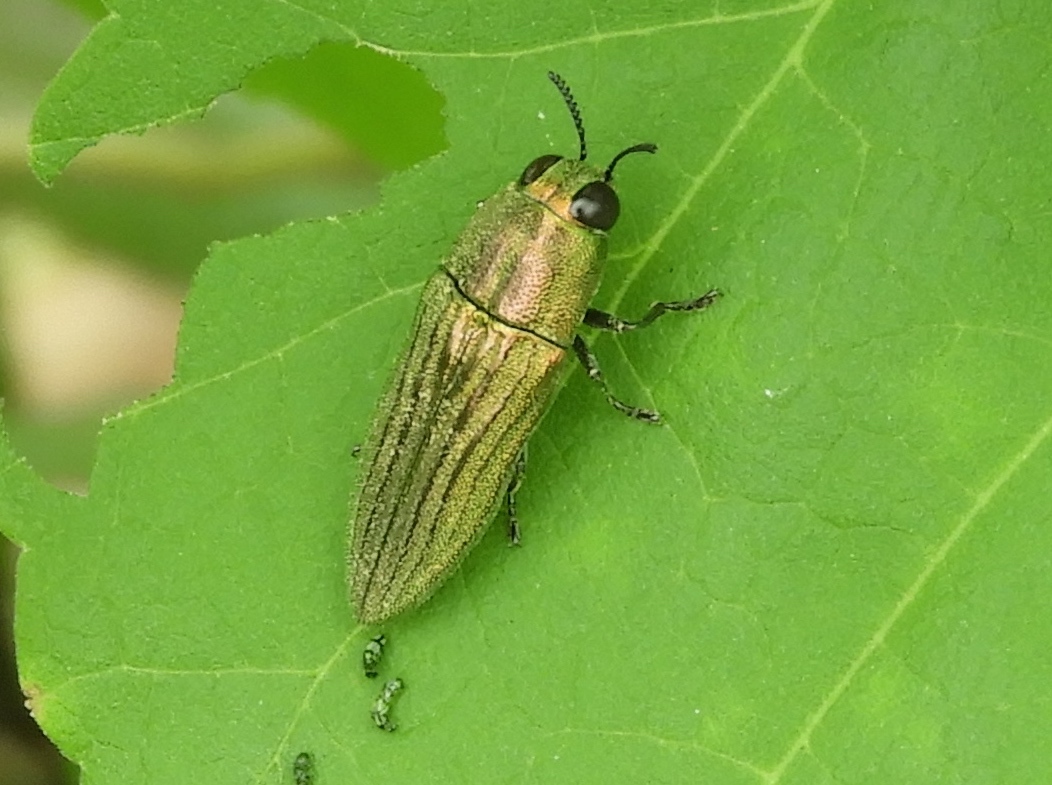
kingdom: Animalia
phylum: Arthropoda
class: Insecta
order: Coleoptera
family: Buprestidae
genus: Agaeocera
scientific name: Agaeocera scintillans
